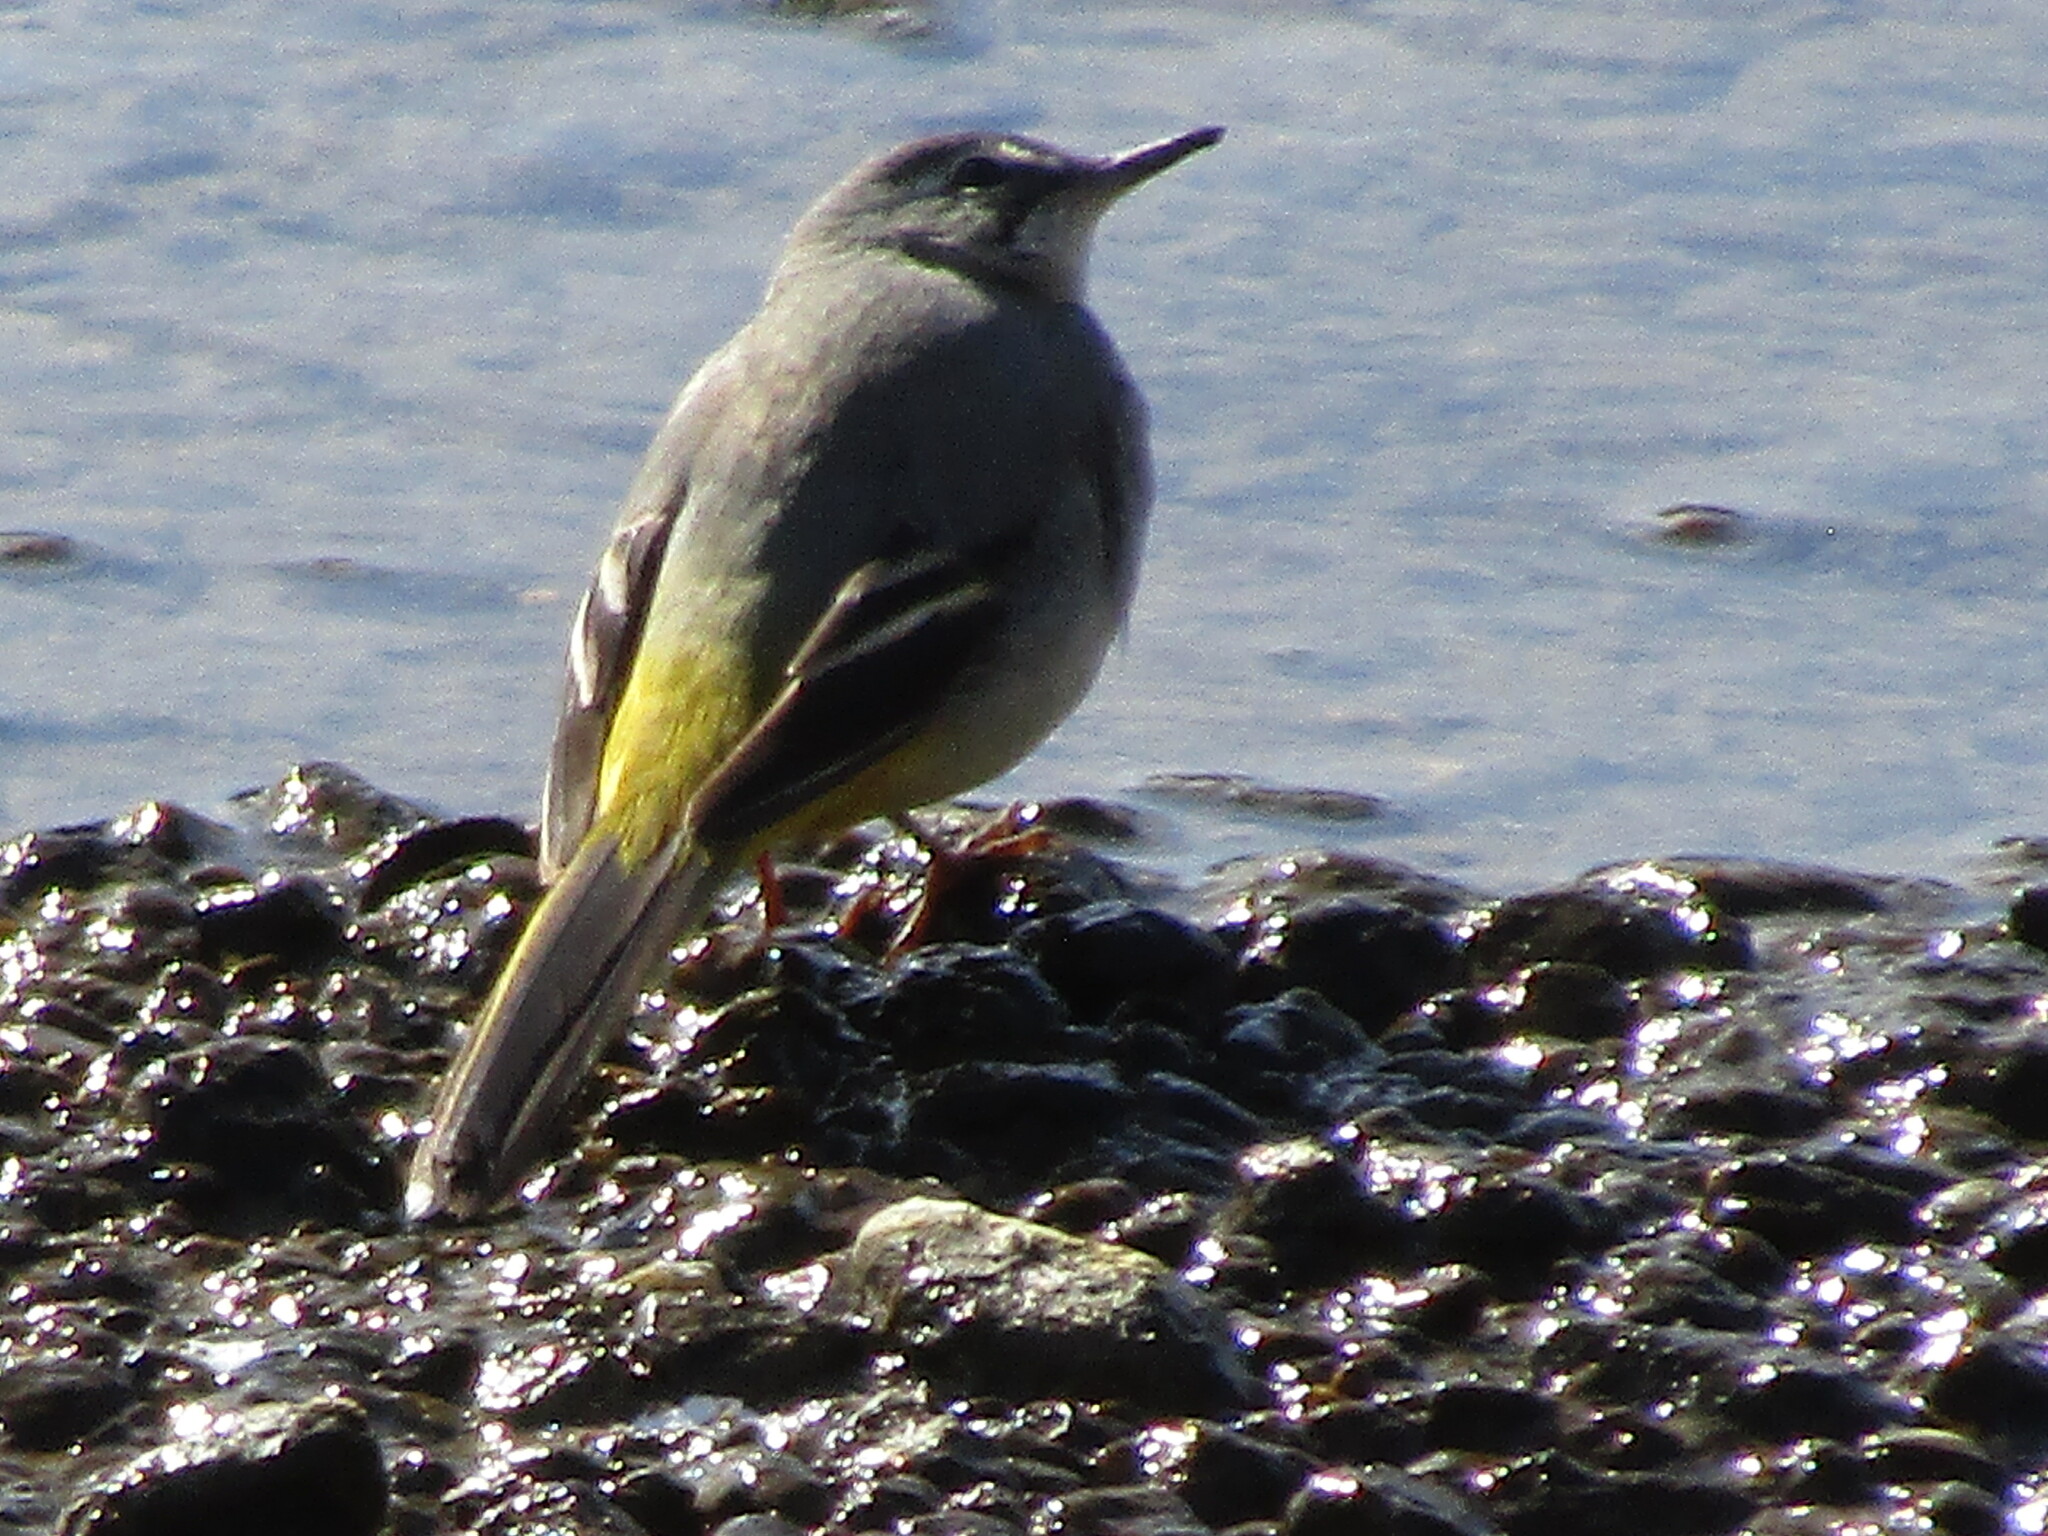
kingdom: Animalia
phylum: Chordata
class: Aves
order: Passeriformes
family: Motacillidae
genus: Motacilla
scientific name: Motacilla cinerea
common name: Grey wagtail
